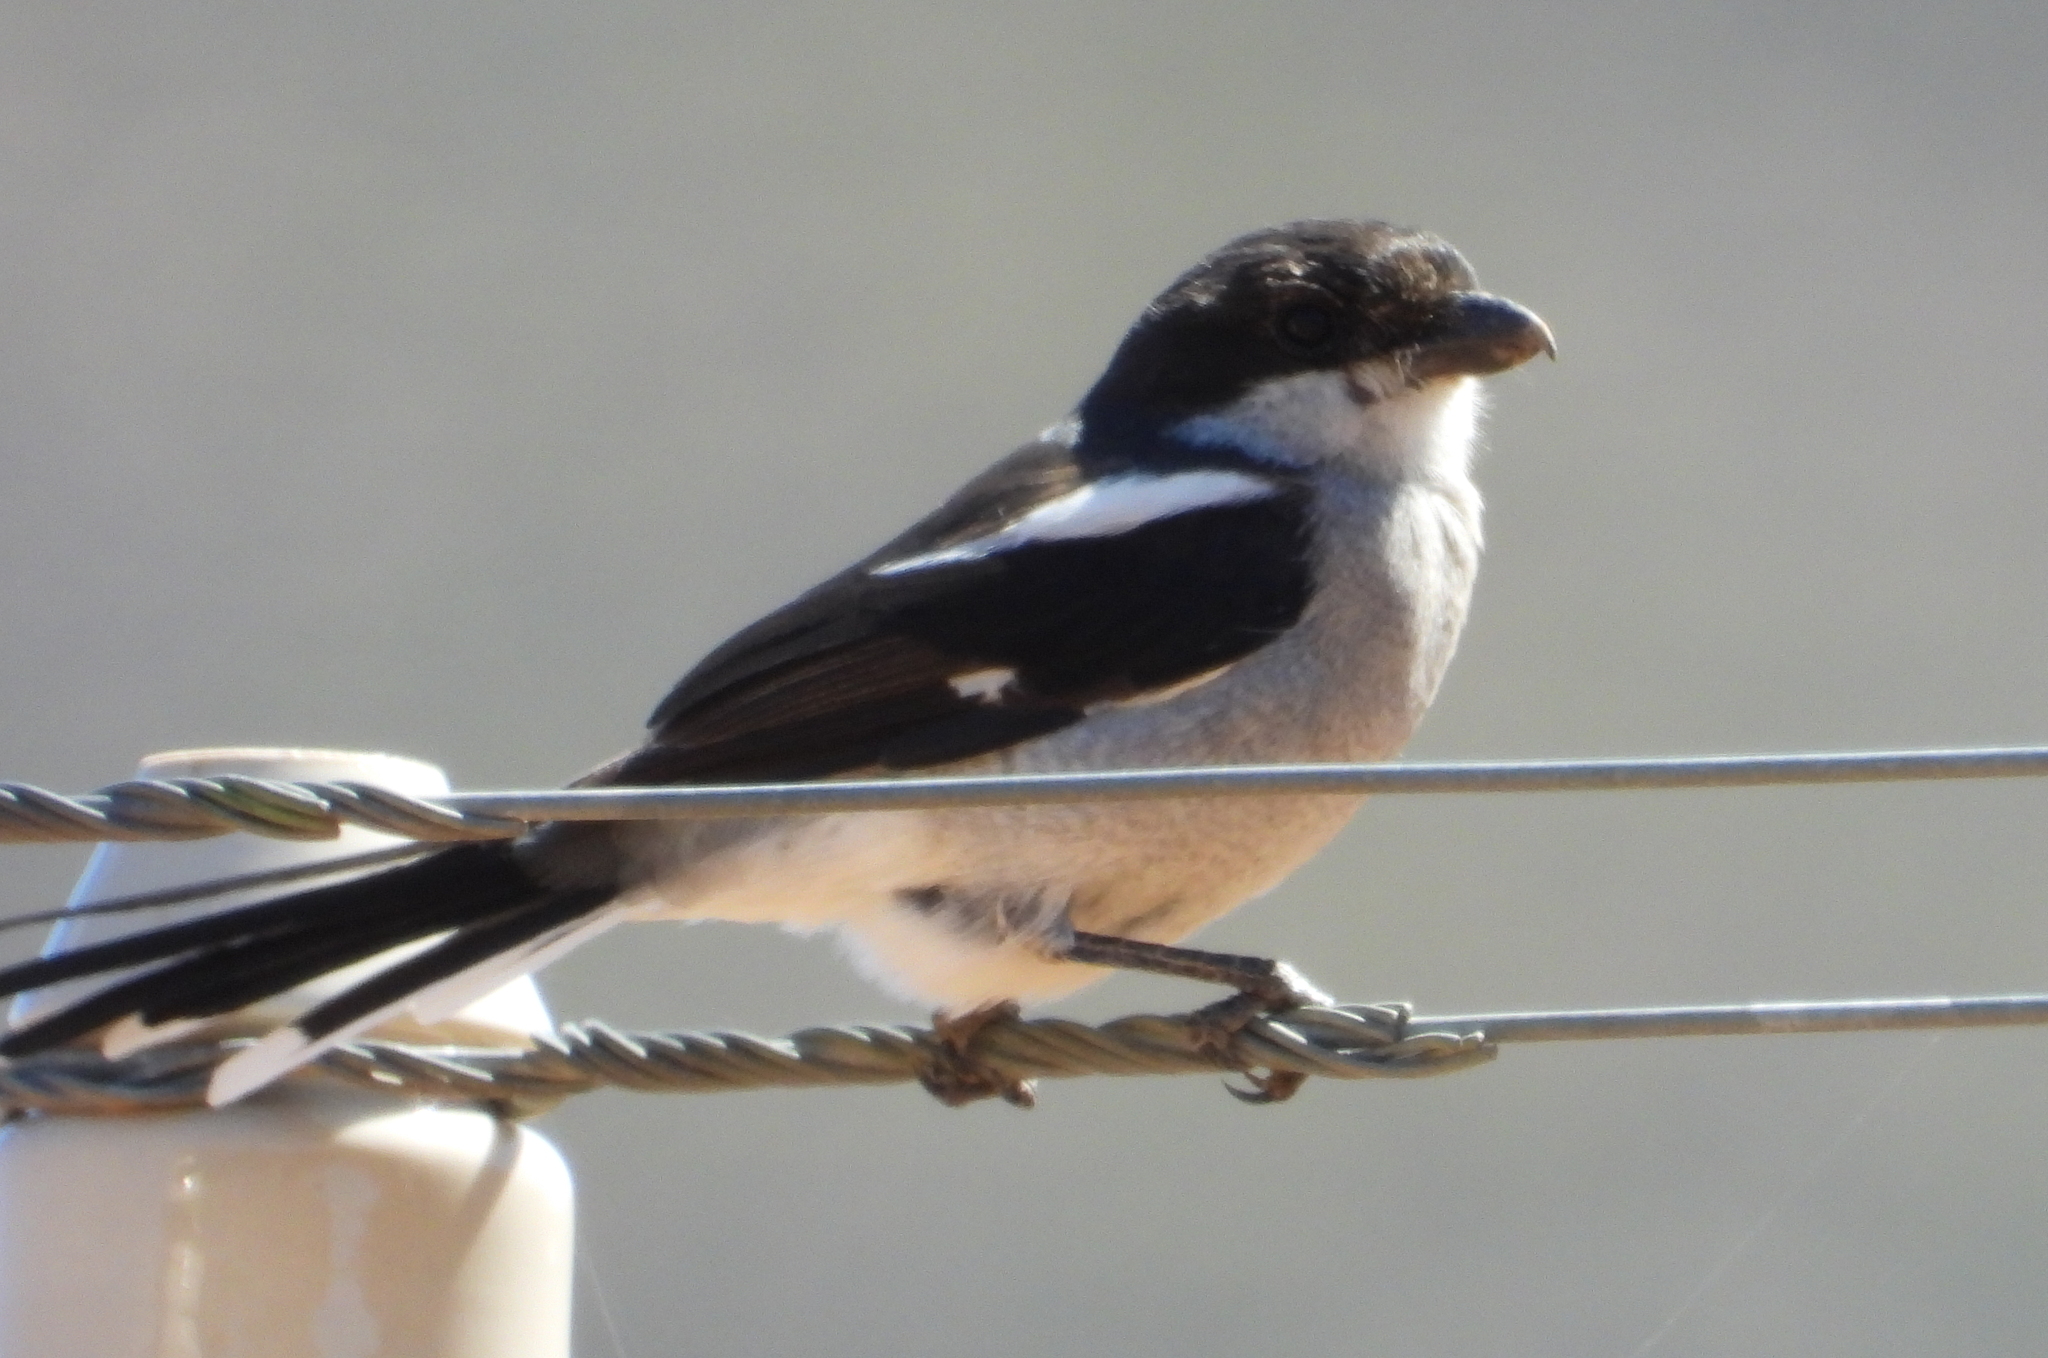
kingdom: Animalia
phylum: Chordata
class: Aves
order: Passeriformes
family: Laniidae
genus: Lanius
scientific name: Lanius collaris
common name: Southern fiscal
